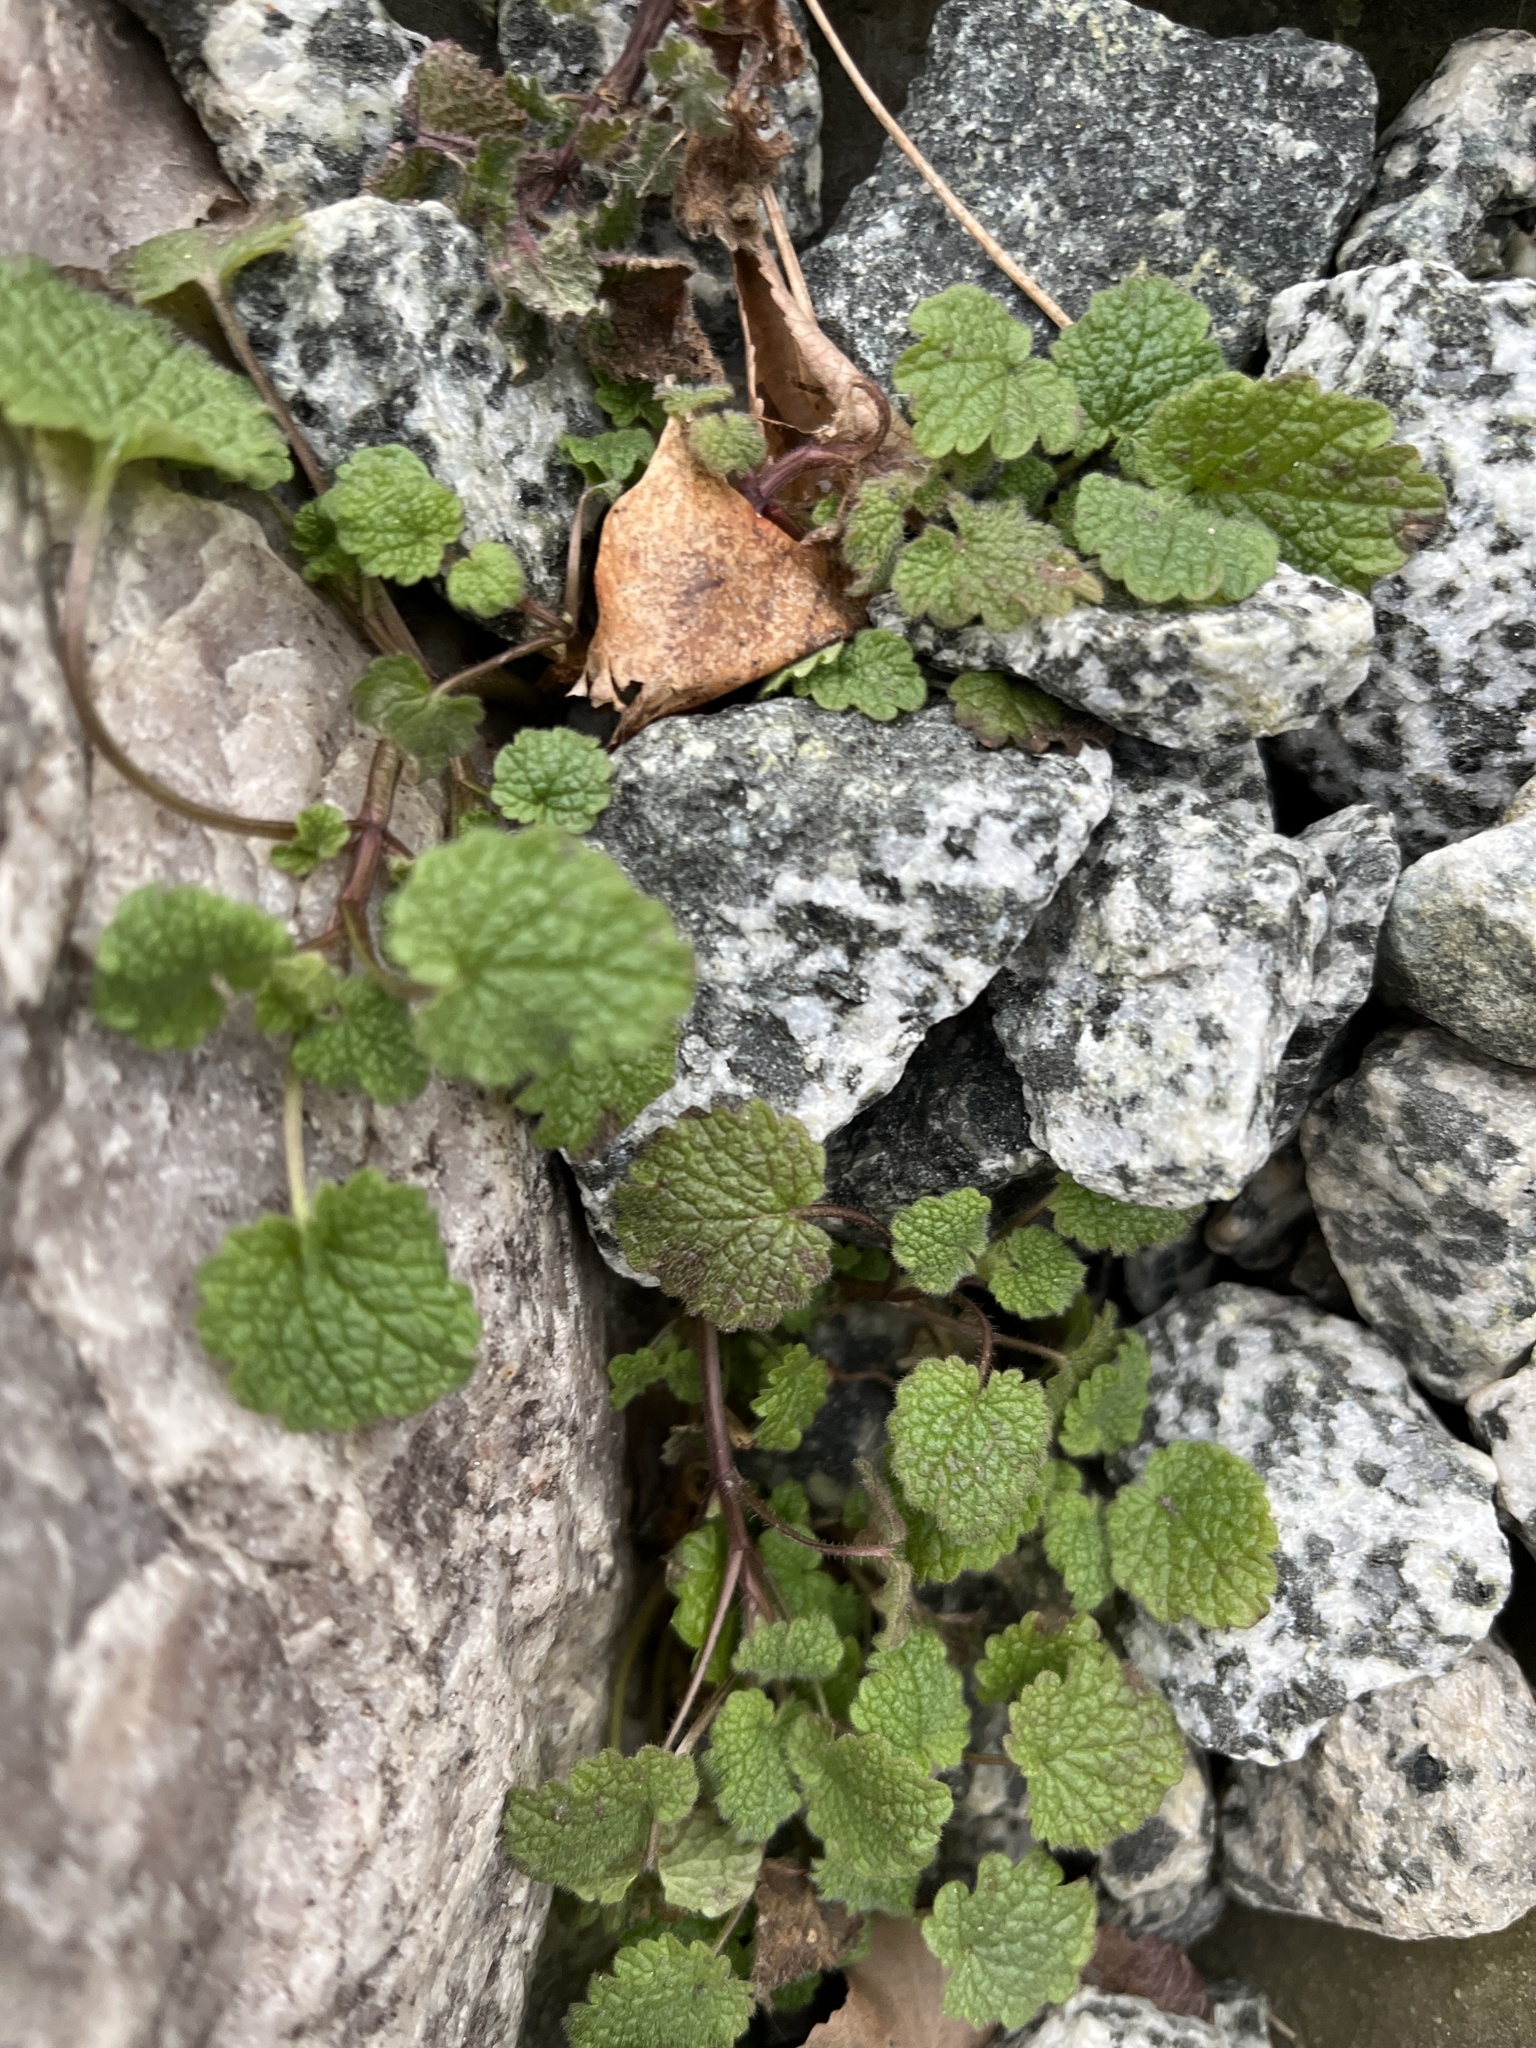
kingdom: Plantae
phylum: Tracheophyta
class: Magnoliopsida
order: Lamiales
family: Lamiaceae
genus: Lamium
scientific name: Lamium purpureum
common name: Red dead-nettle
